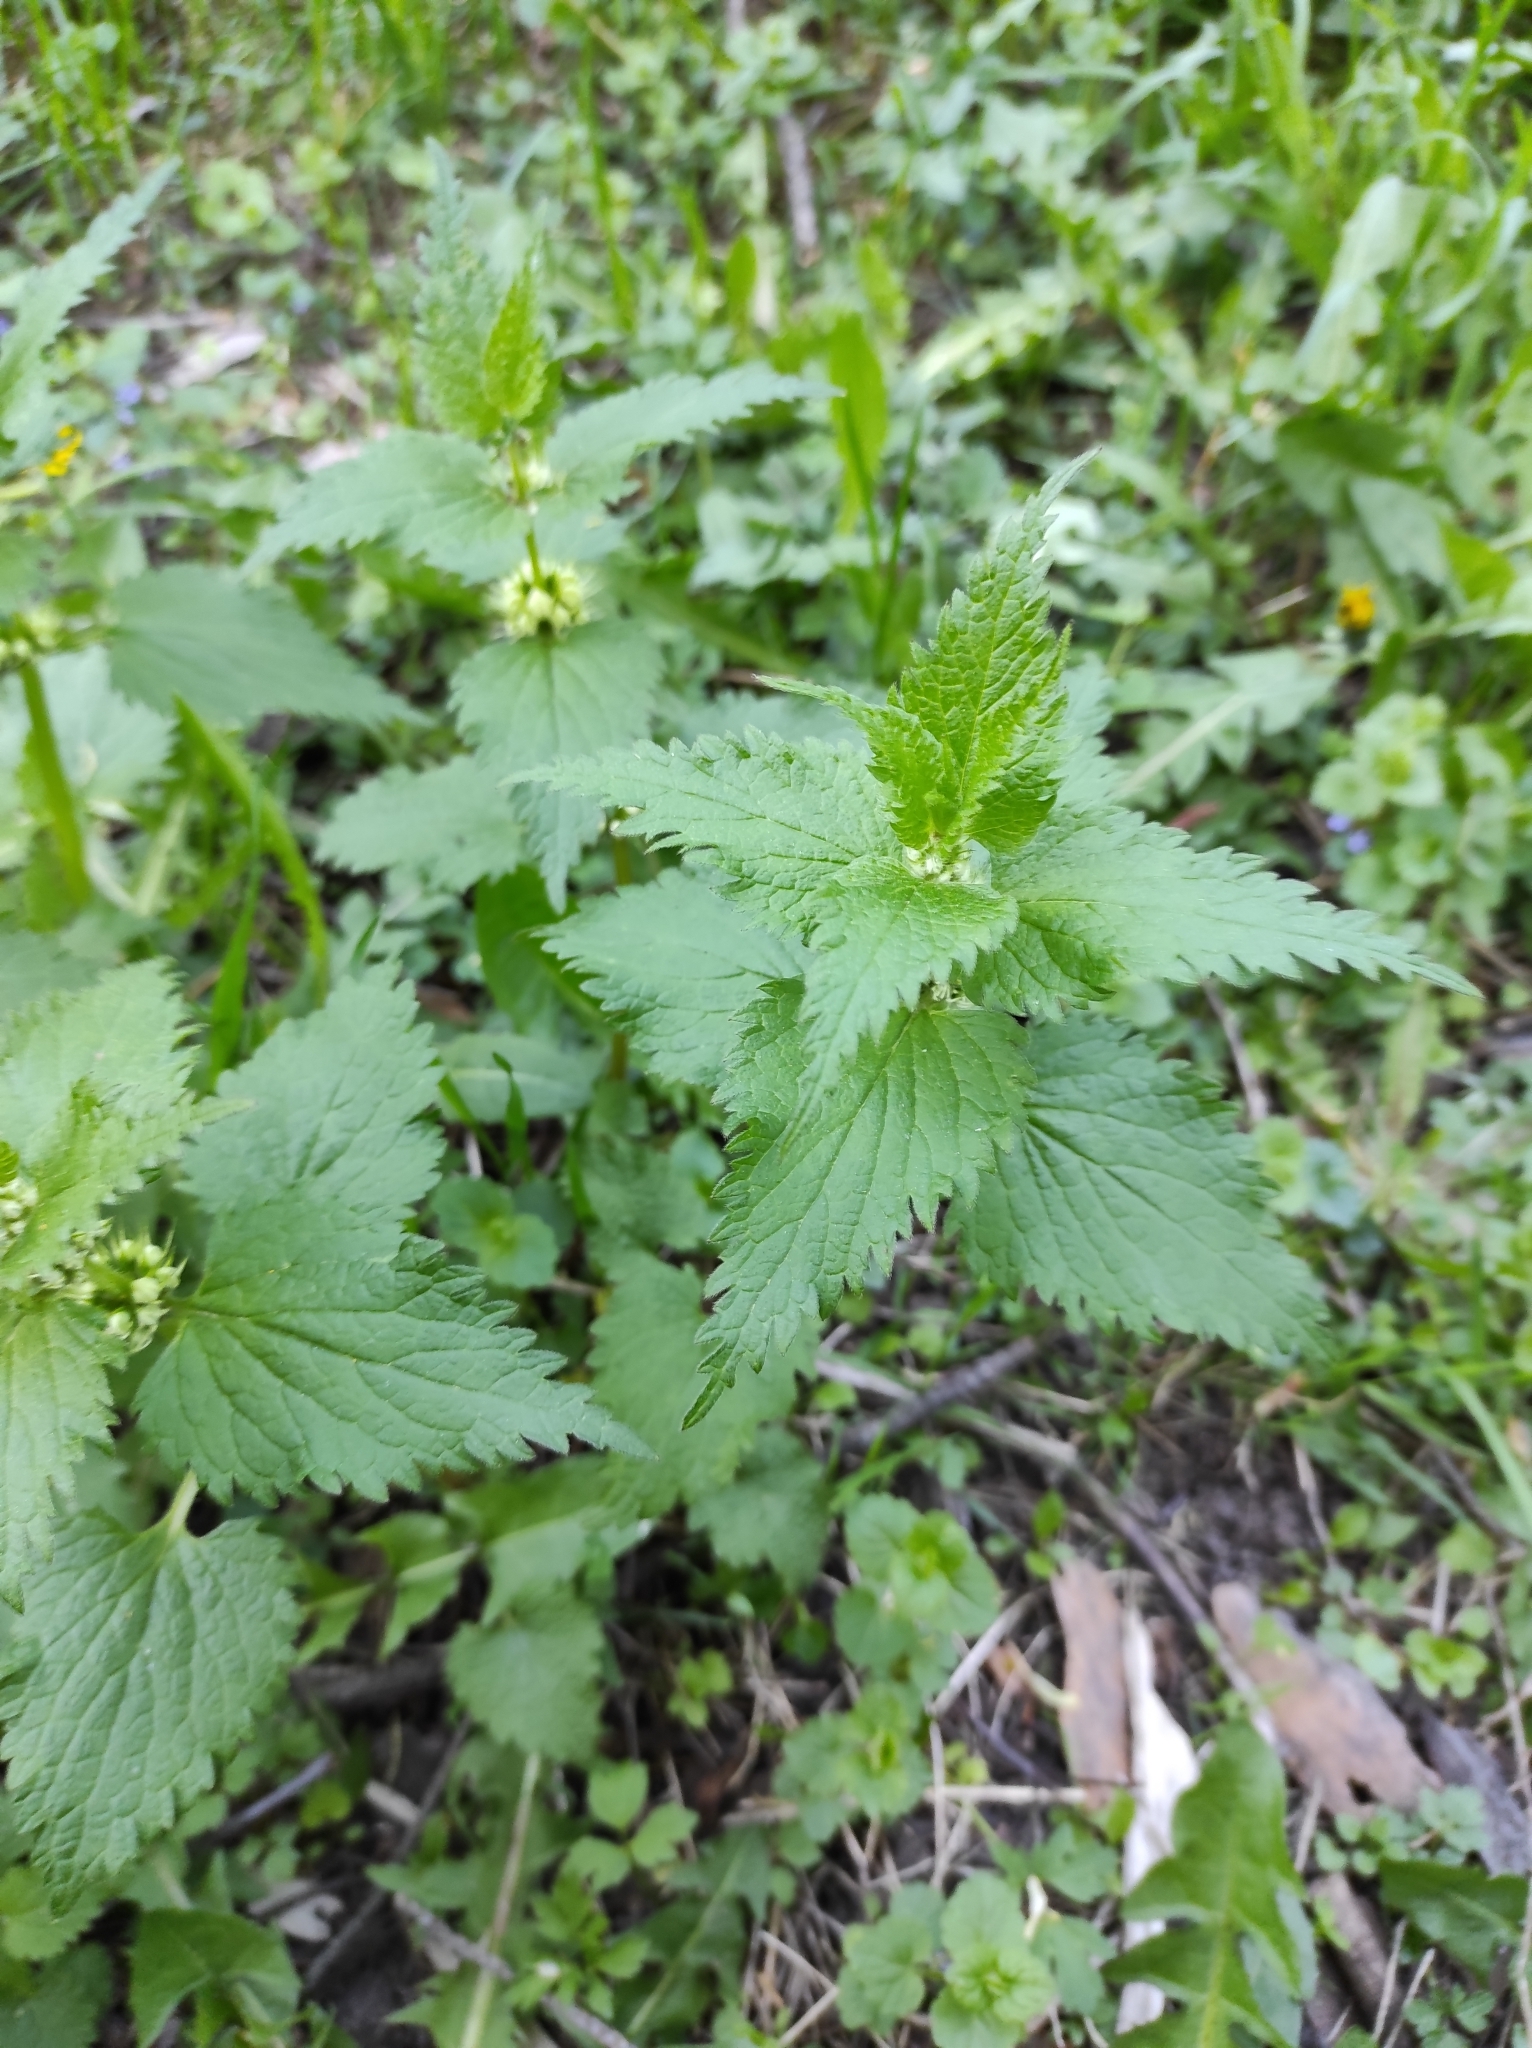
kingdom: Plantae
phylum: Tracheophyta
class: Magnoliopsida
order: Lamiales
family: Lamiaceae
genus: Lamium
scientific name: Lamium album
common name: White dead-nettle
